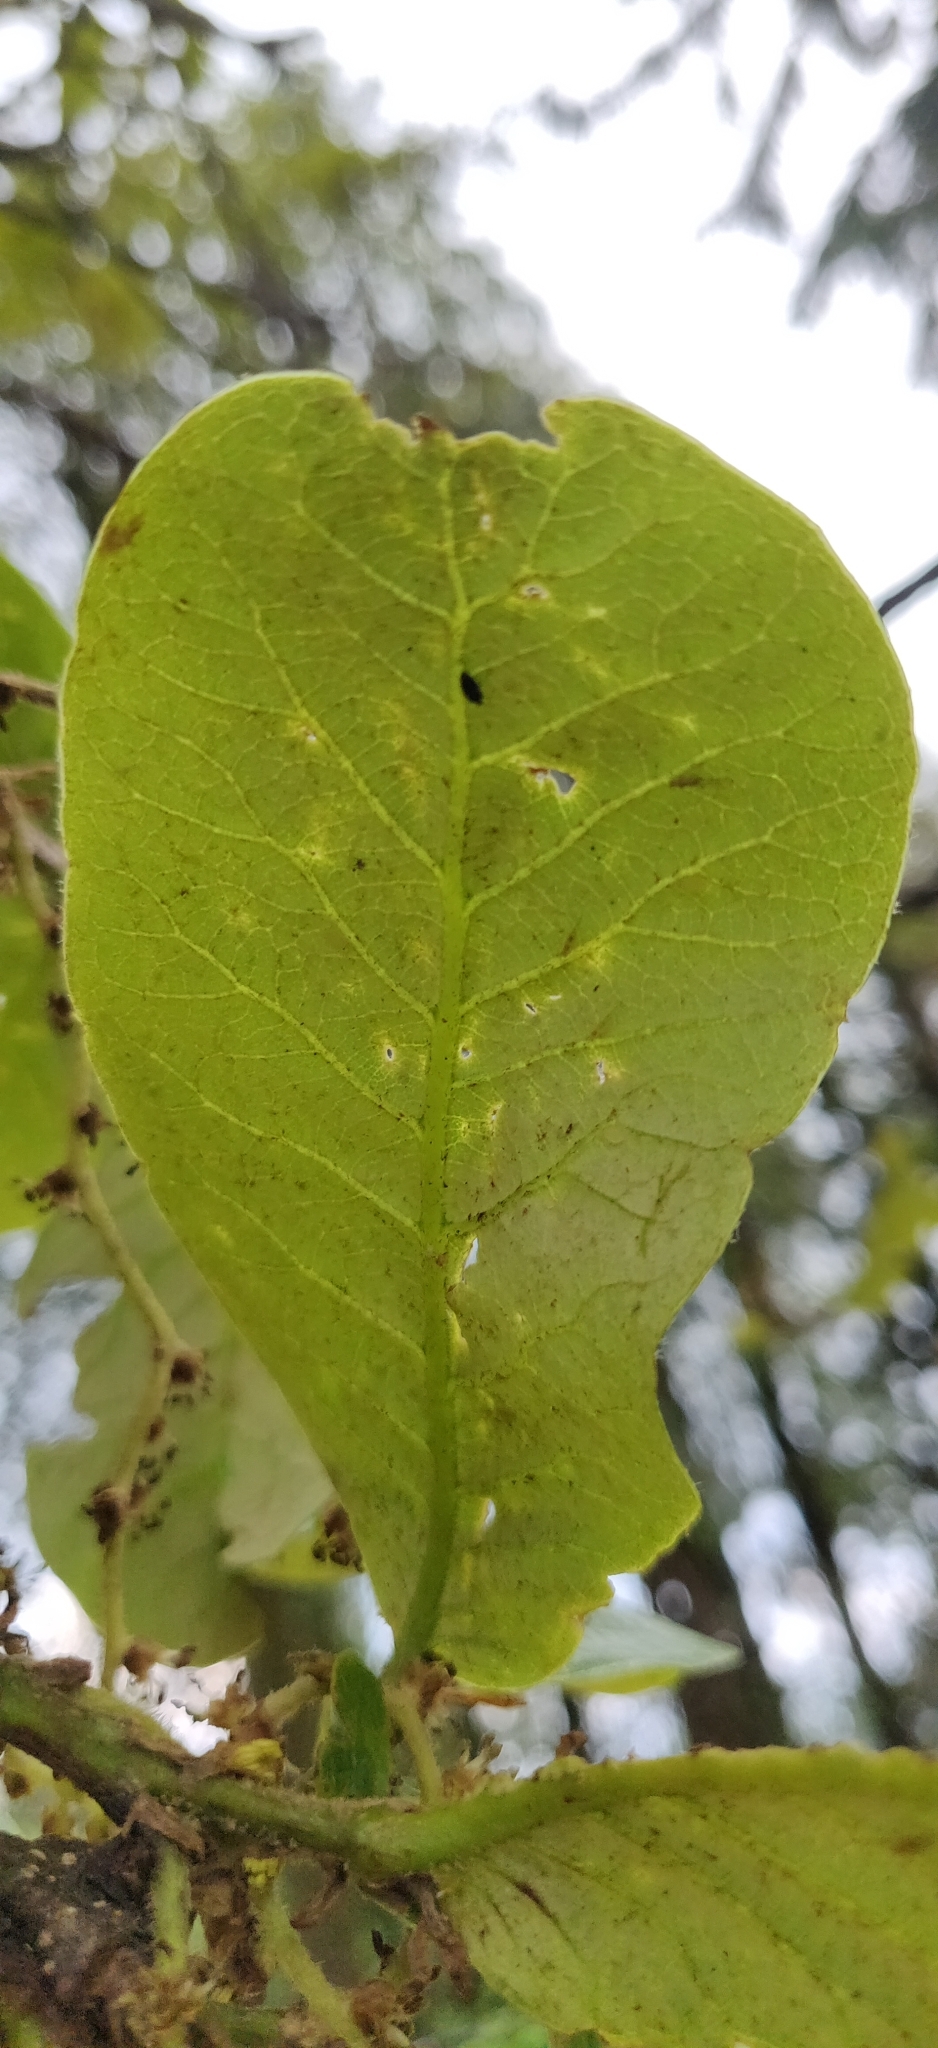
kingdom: Plantae
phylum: Tracheophyta
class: Magnoliopsida
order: Fagales
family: Fagaceae
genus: Quercus
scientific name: Quercus semecarpifolia
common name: Brown oak
